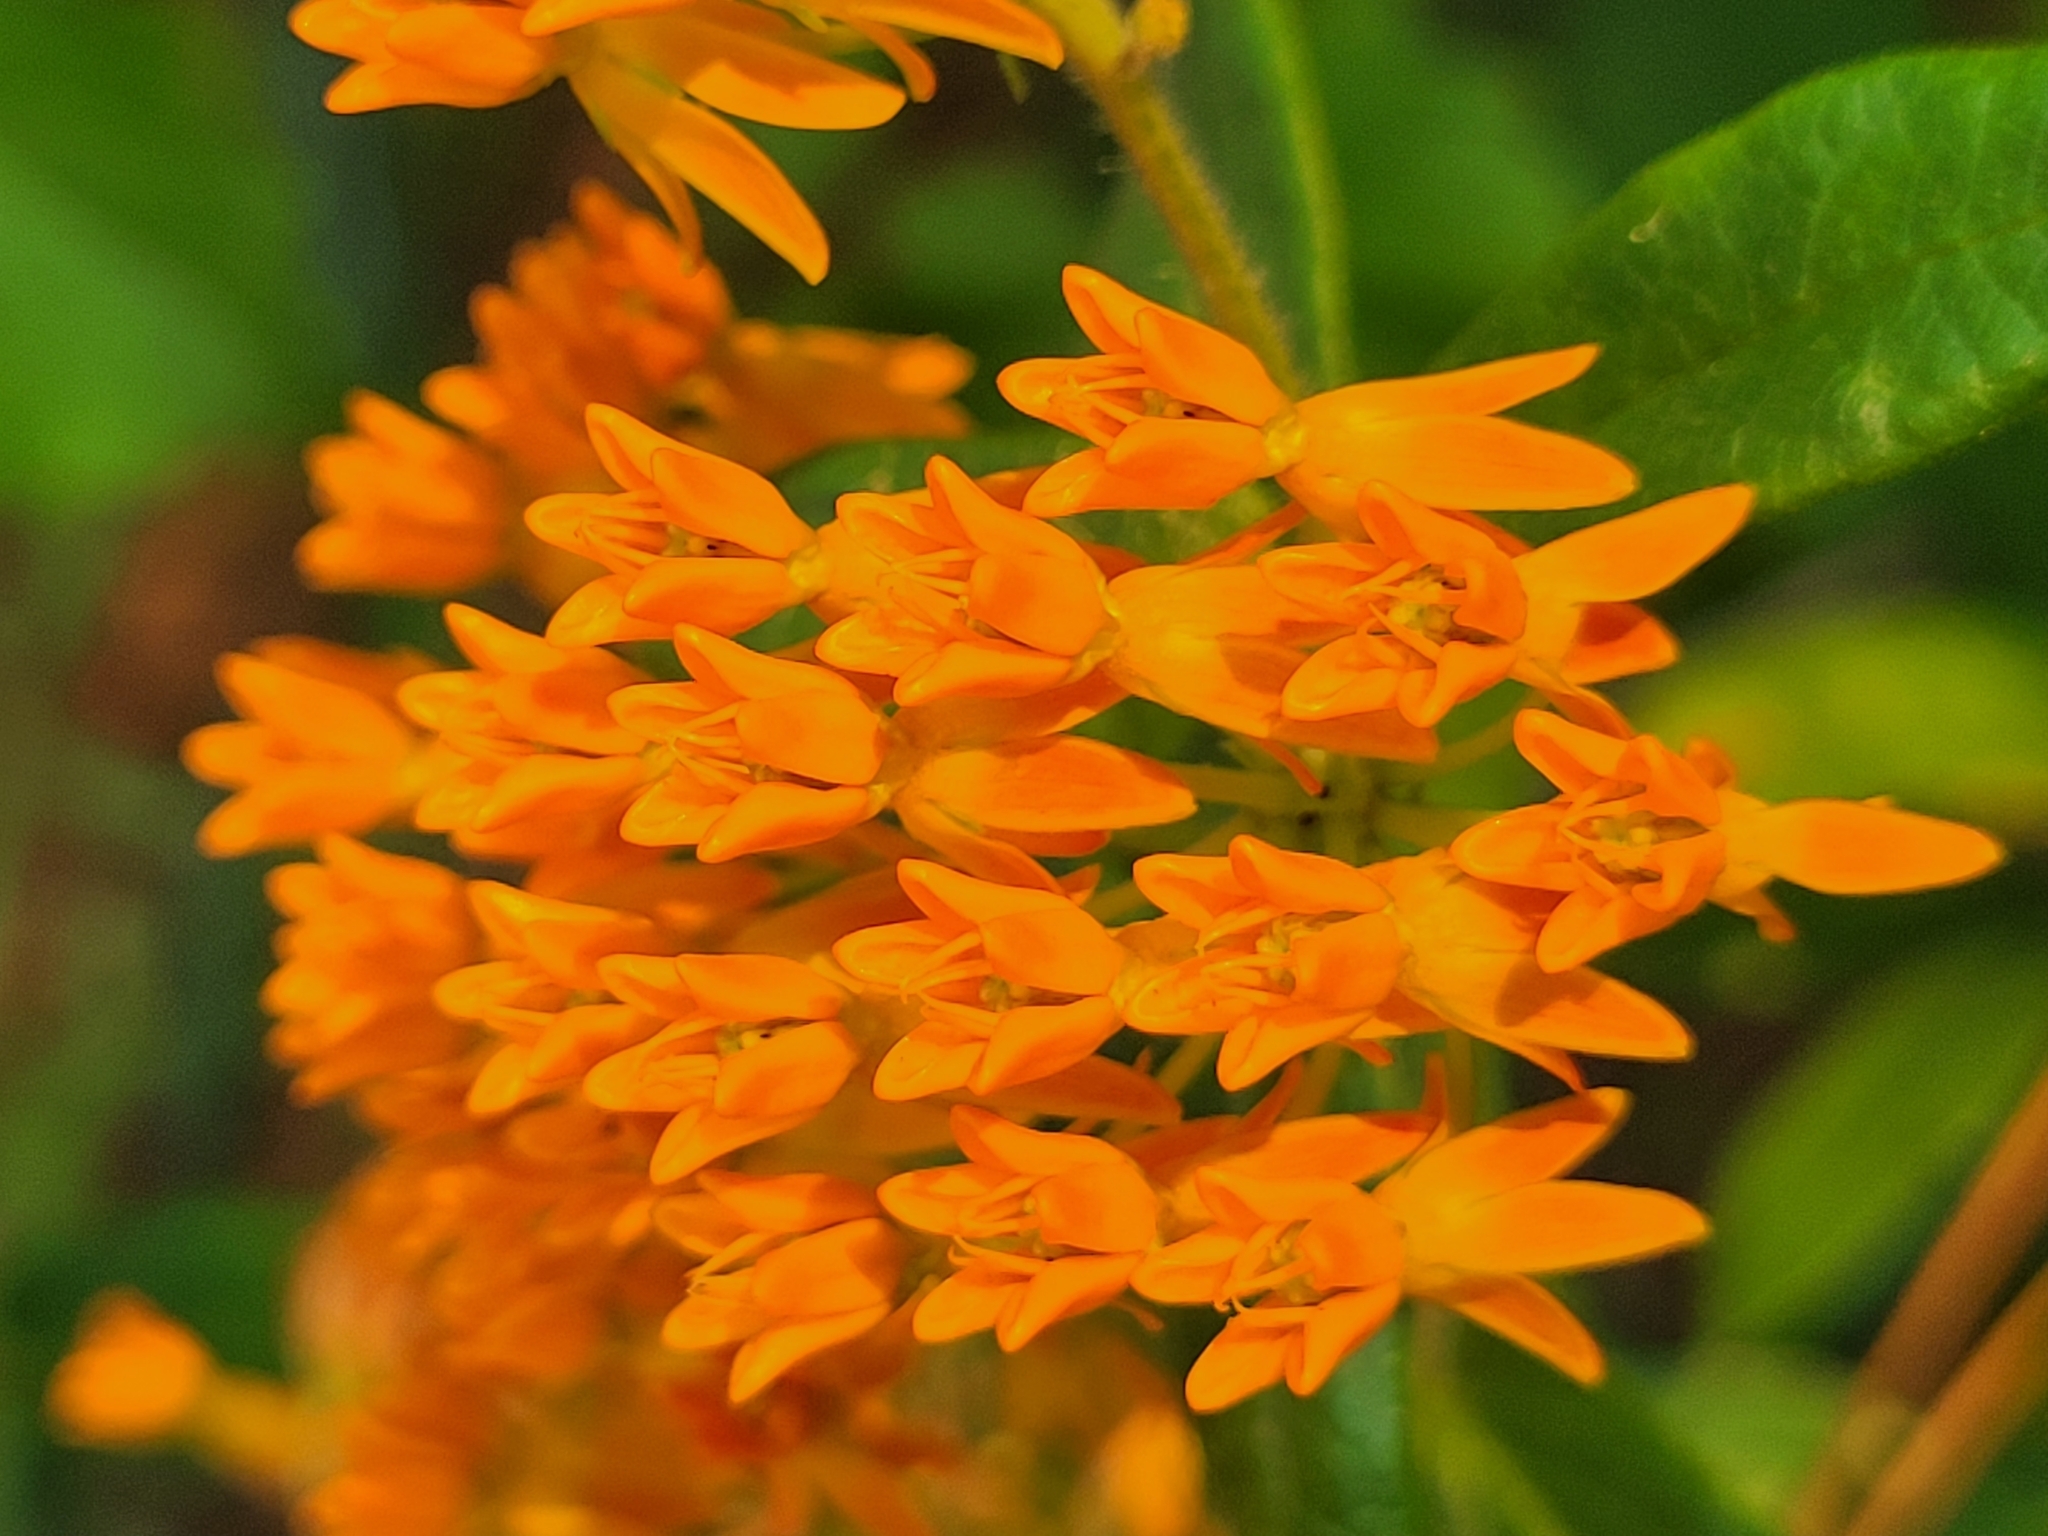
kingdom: Plantae
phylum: Tracheophyta
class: Magnoliopsida
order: Gentianales
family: Apocynaceae
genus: Asclepias
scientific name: Asclepias tuberosa
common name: Butterfly milkweed
